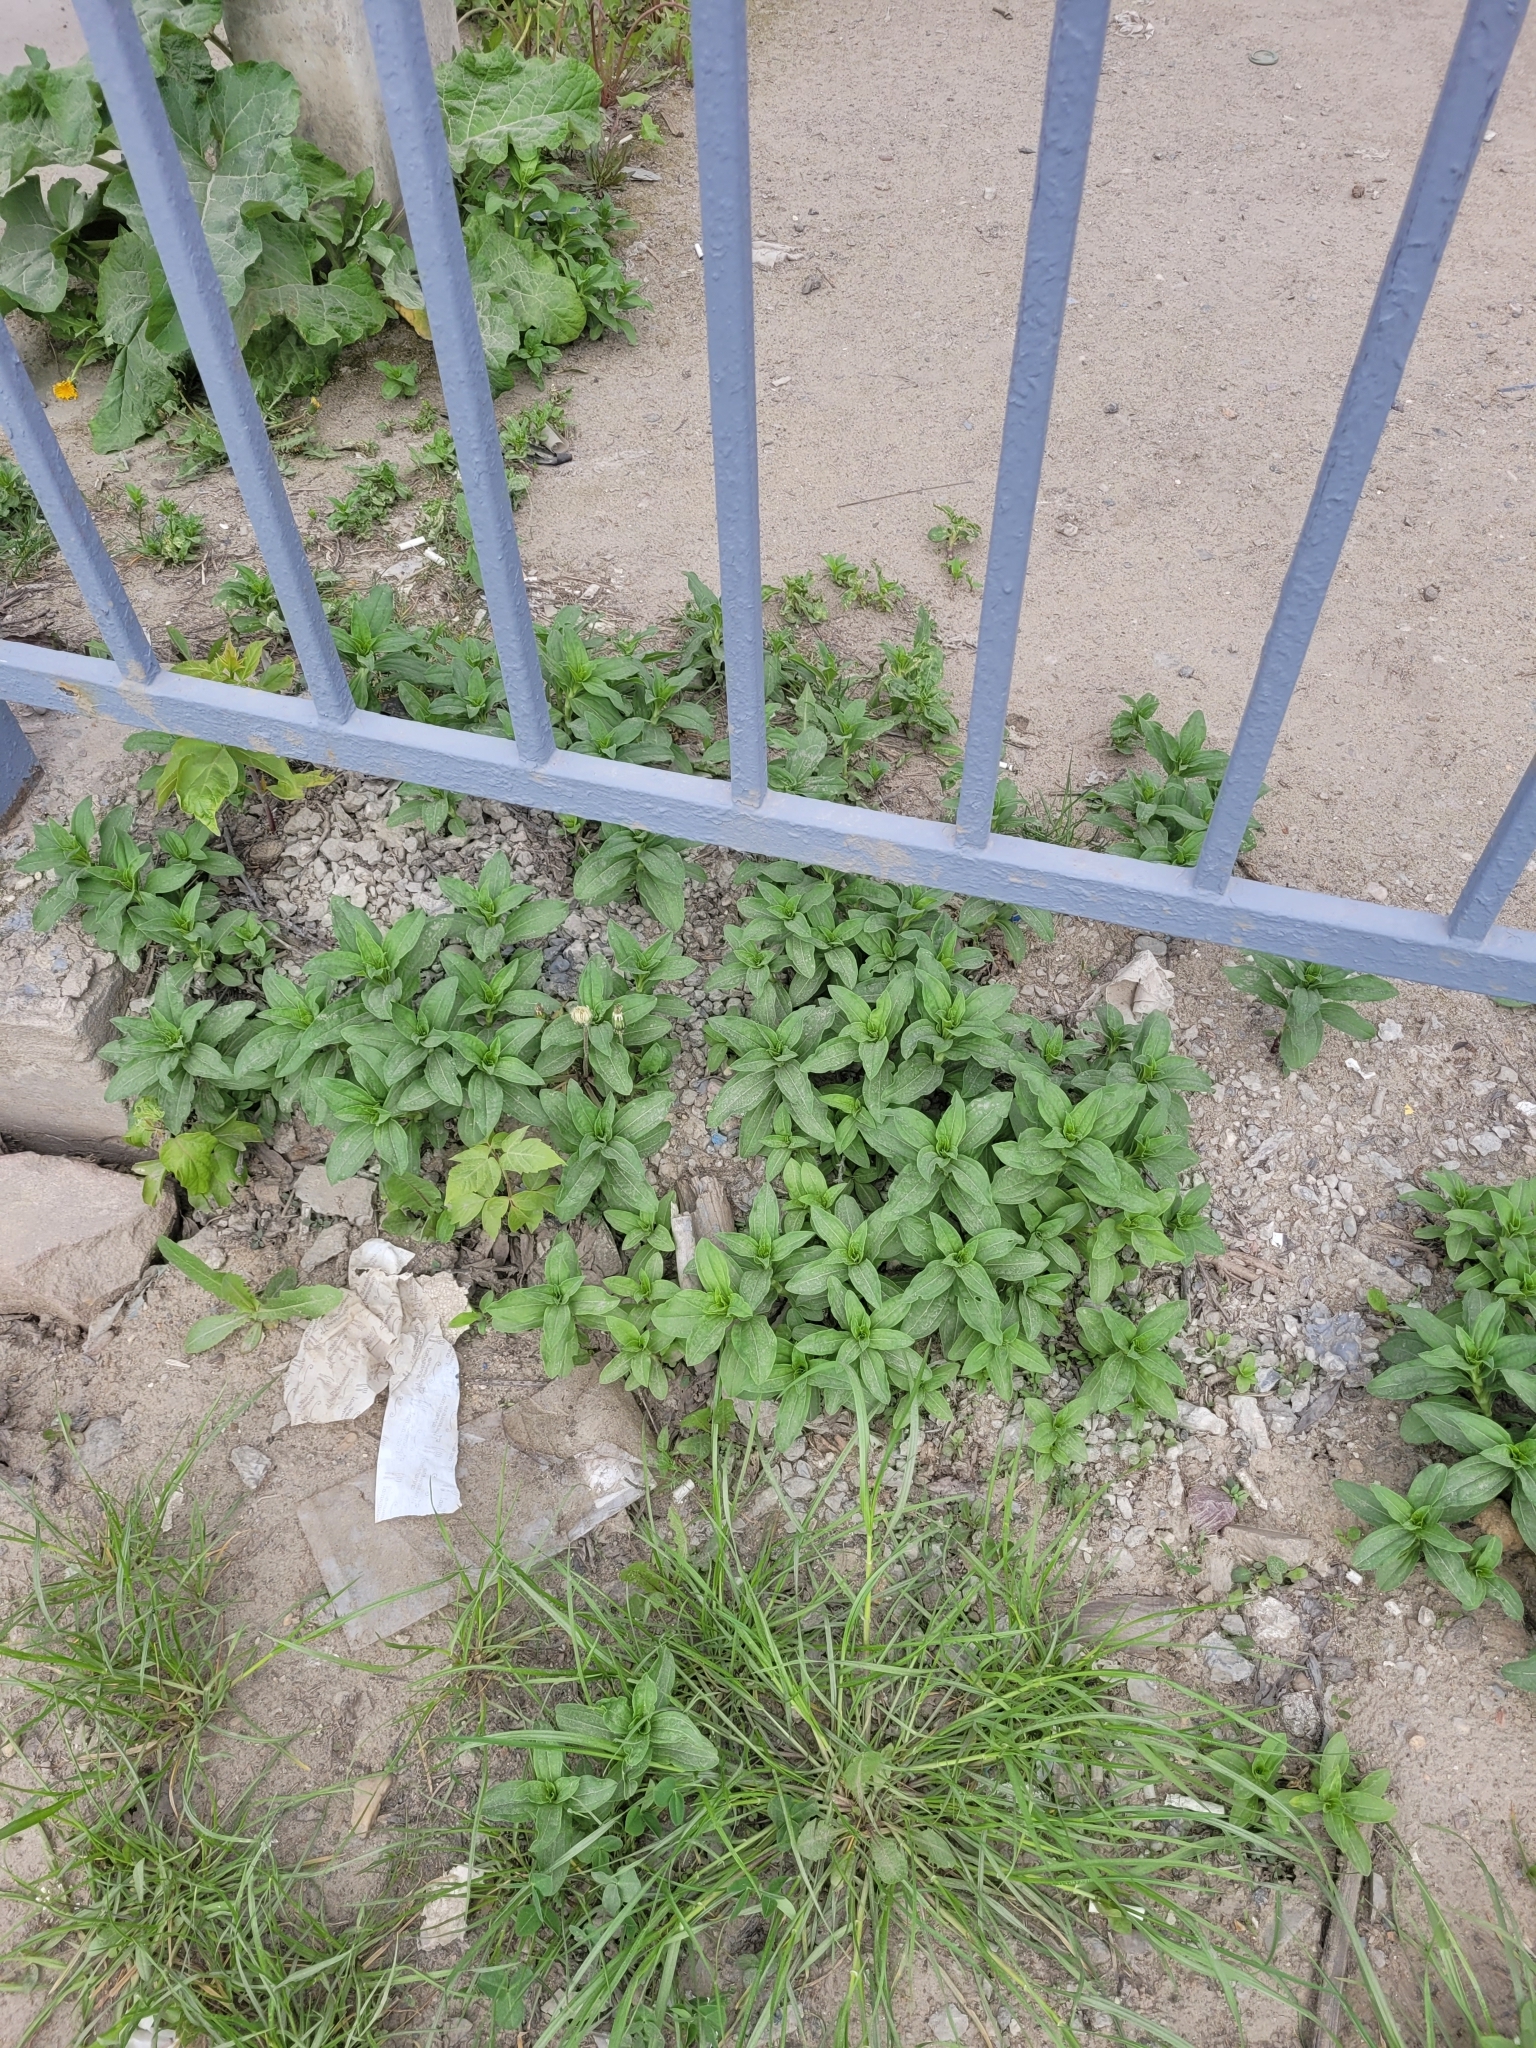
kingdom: Plantae
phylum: Tracheophyta
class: Magnoliopsida
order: Caryophyllales
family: Caryophyllaceae
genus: Saponaria
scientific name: Saponaria officinalis
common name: Soapwort
